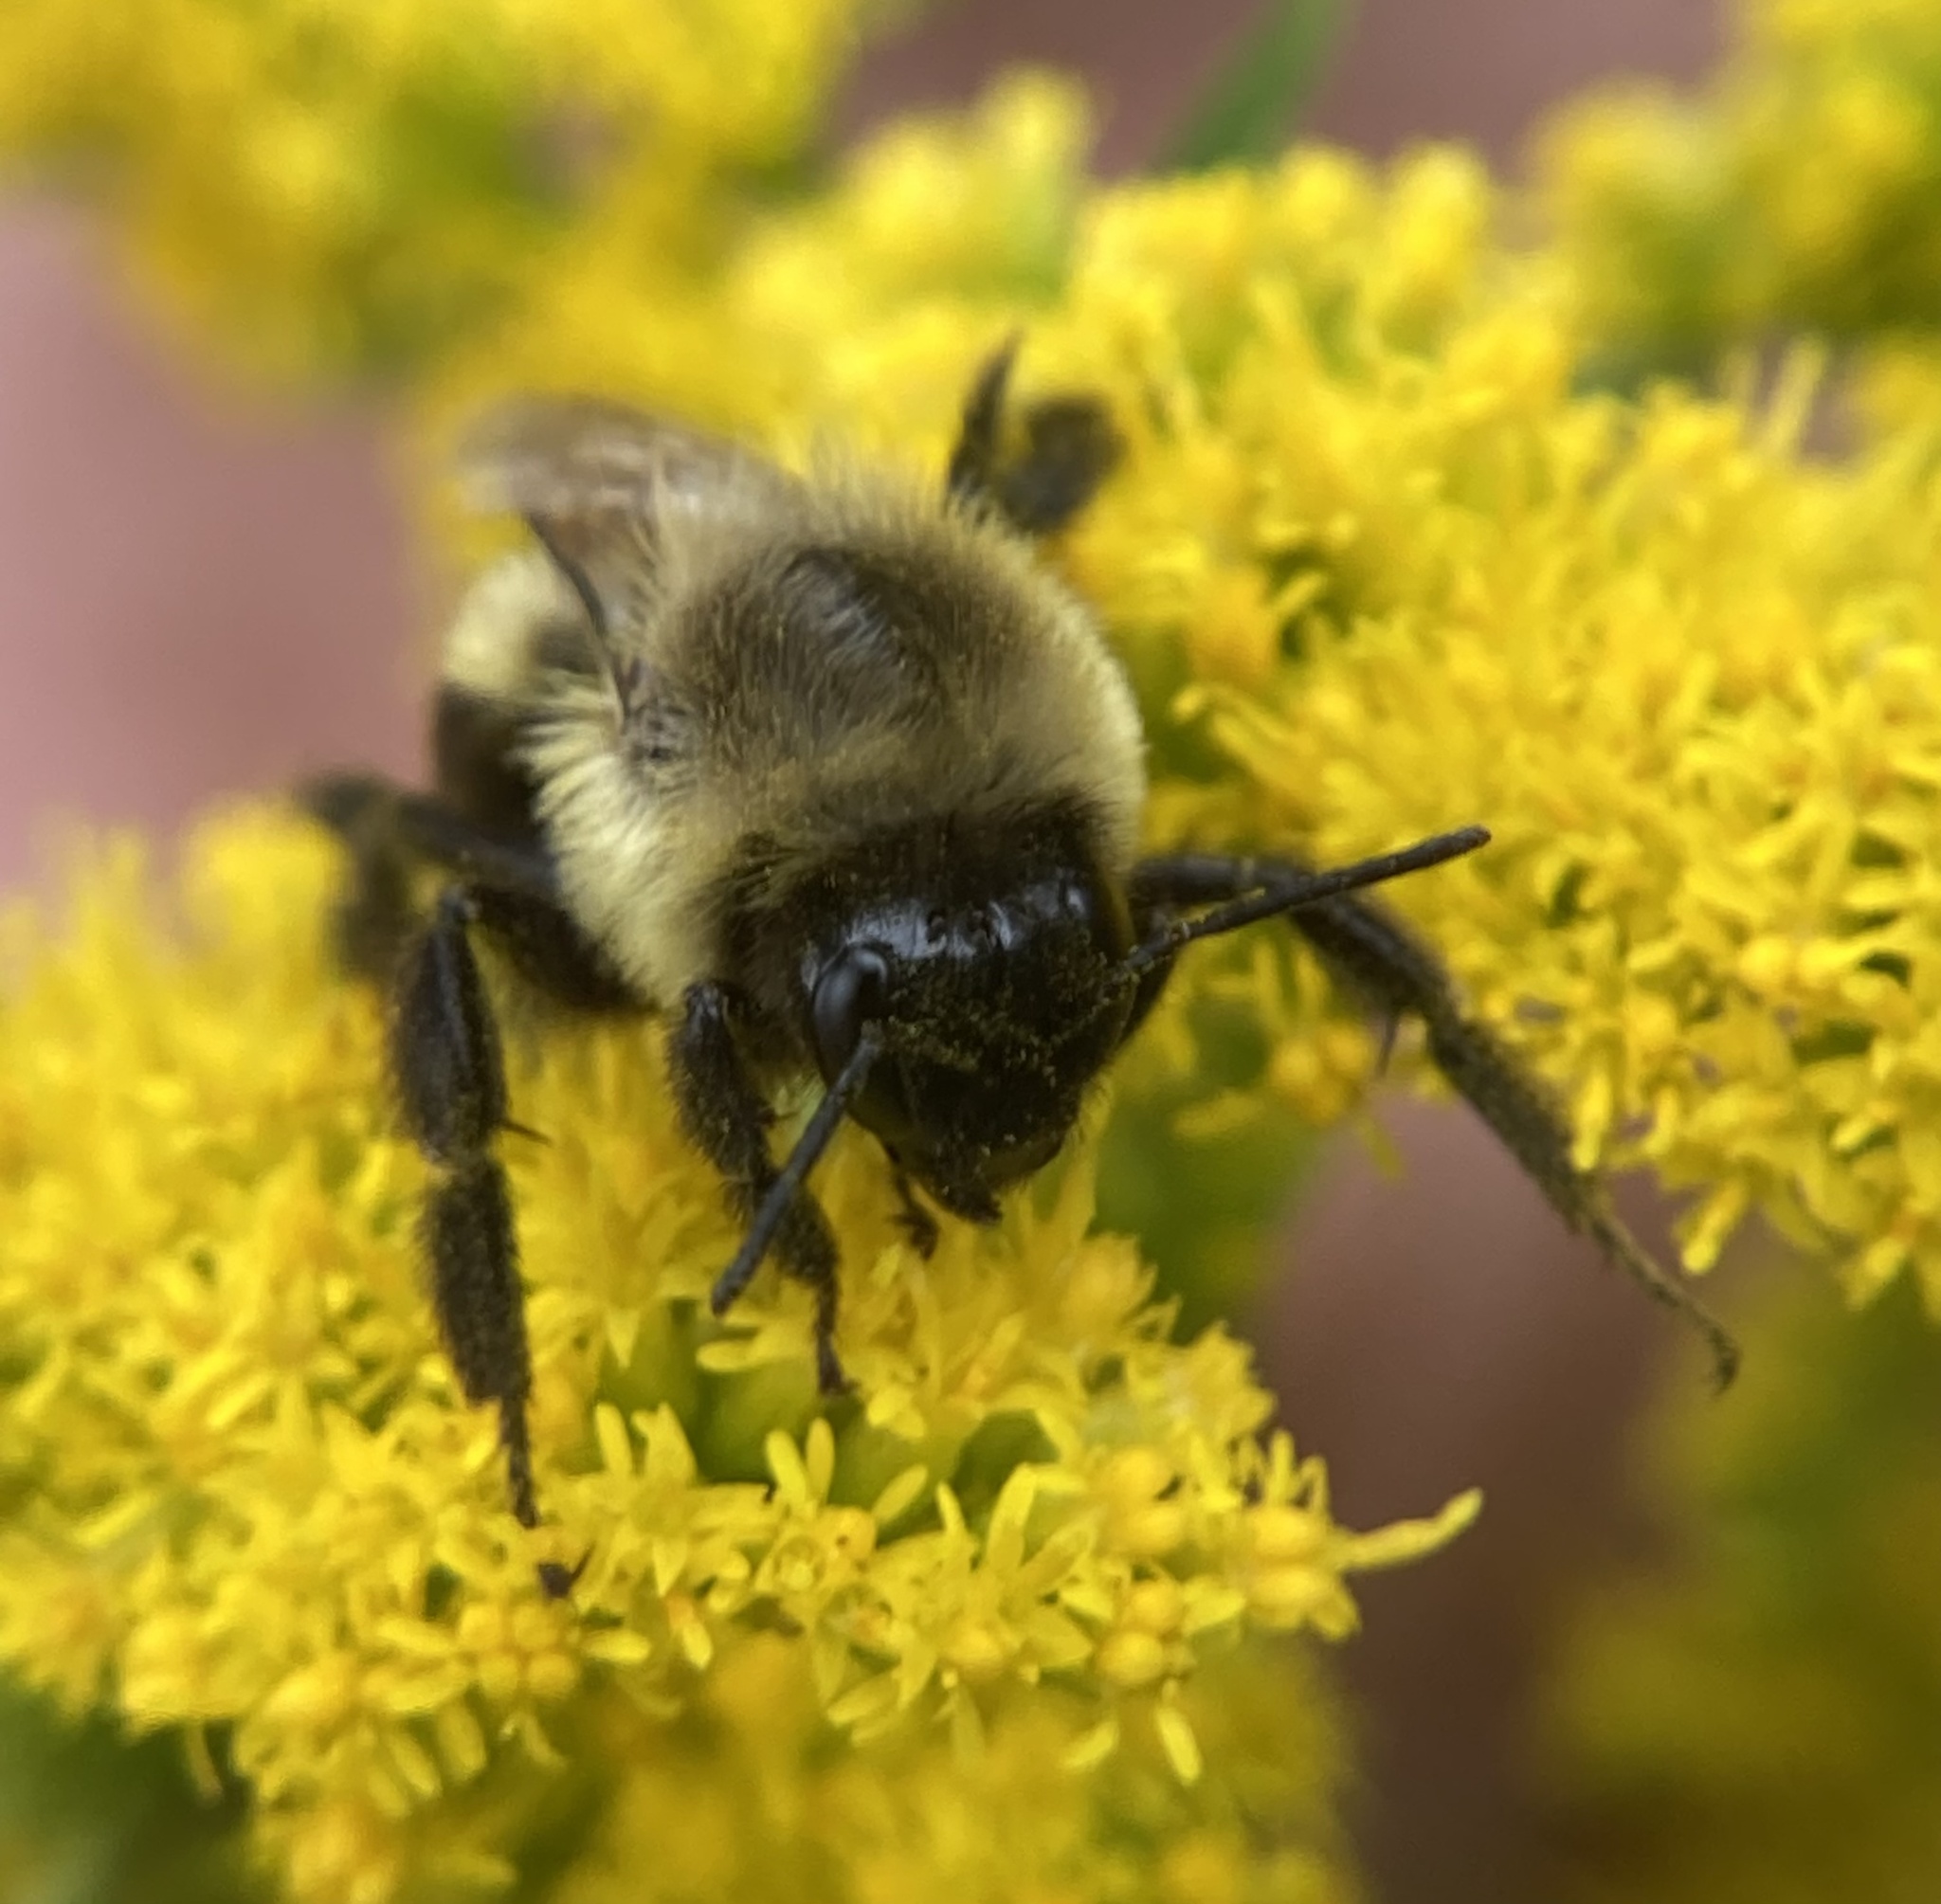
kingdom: Animalia
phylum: Arthropoda
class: Insecta
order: Hymenoptera
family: Apidae
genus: Bombus
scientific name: Bombus impatiens
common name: Common eastern bumble bee
